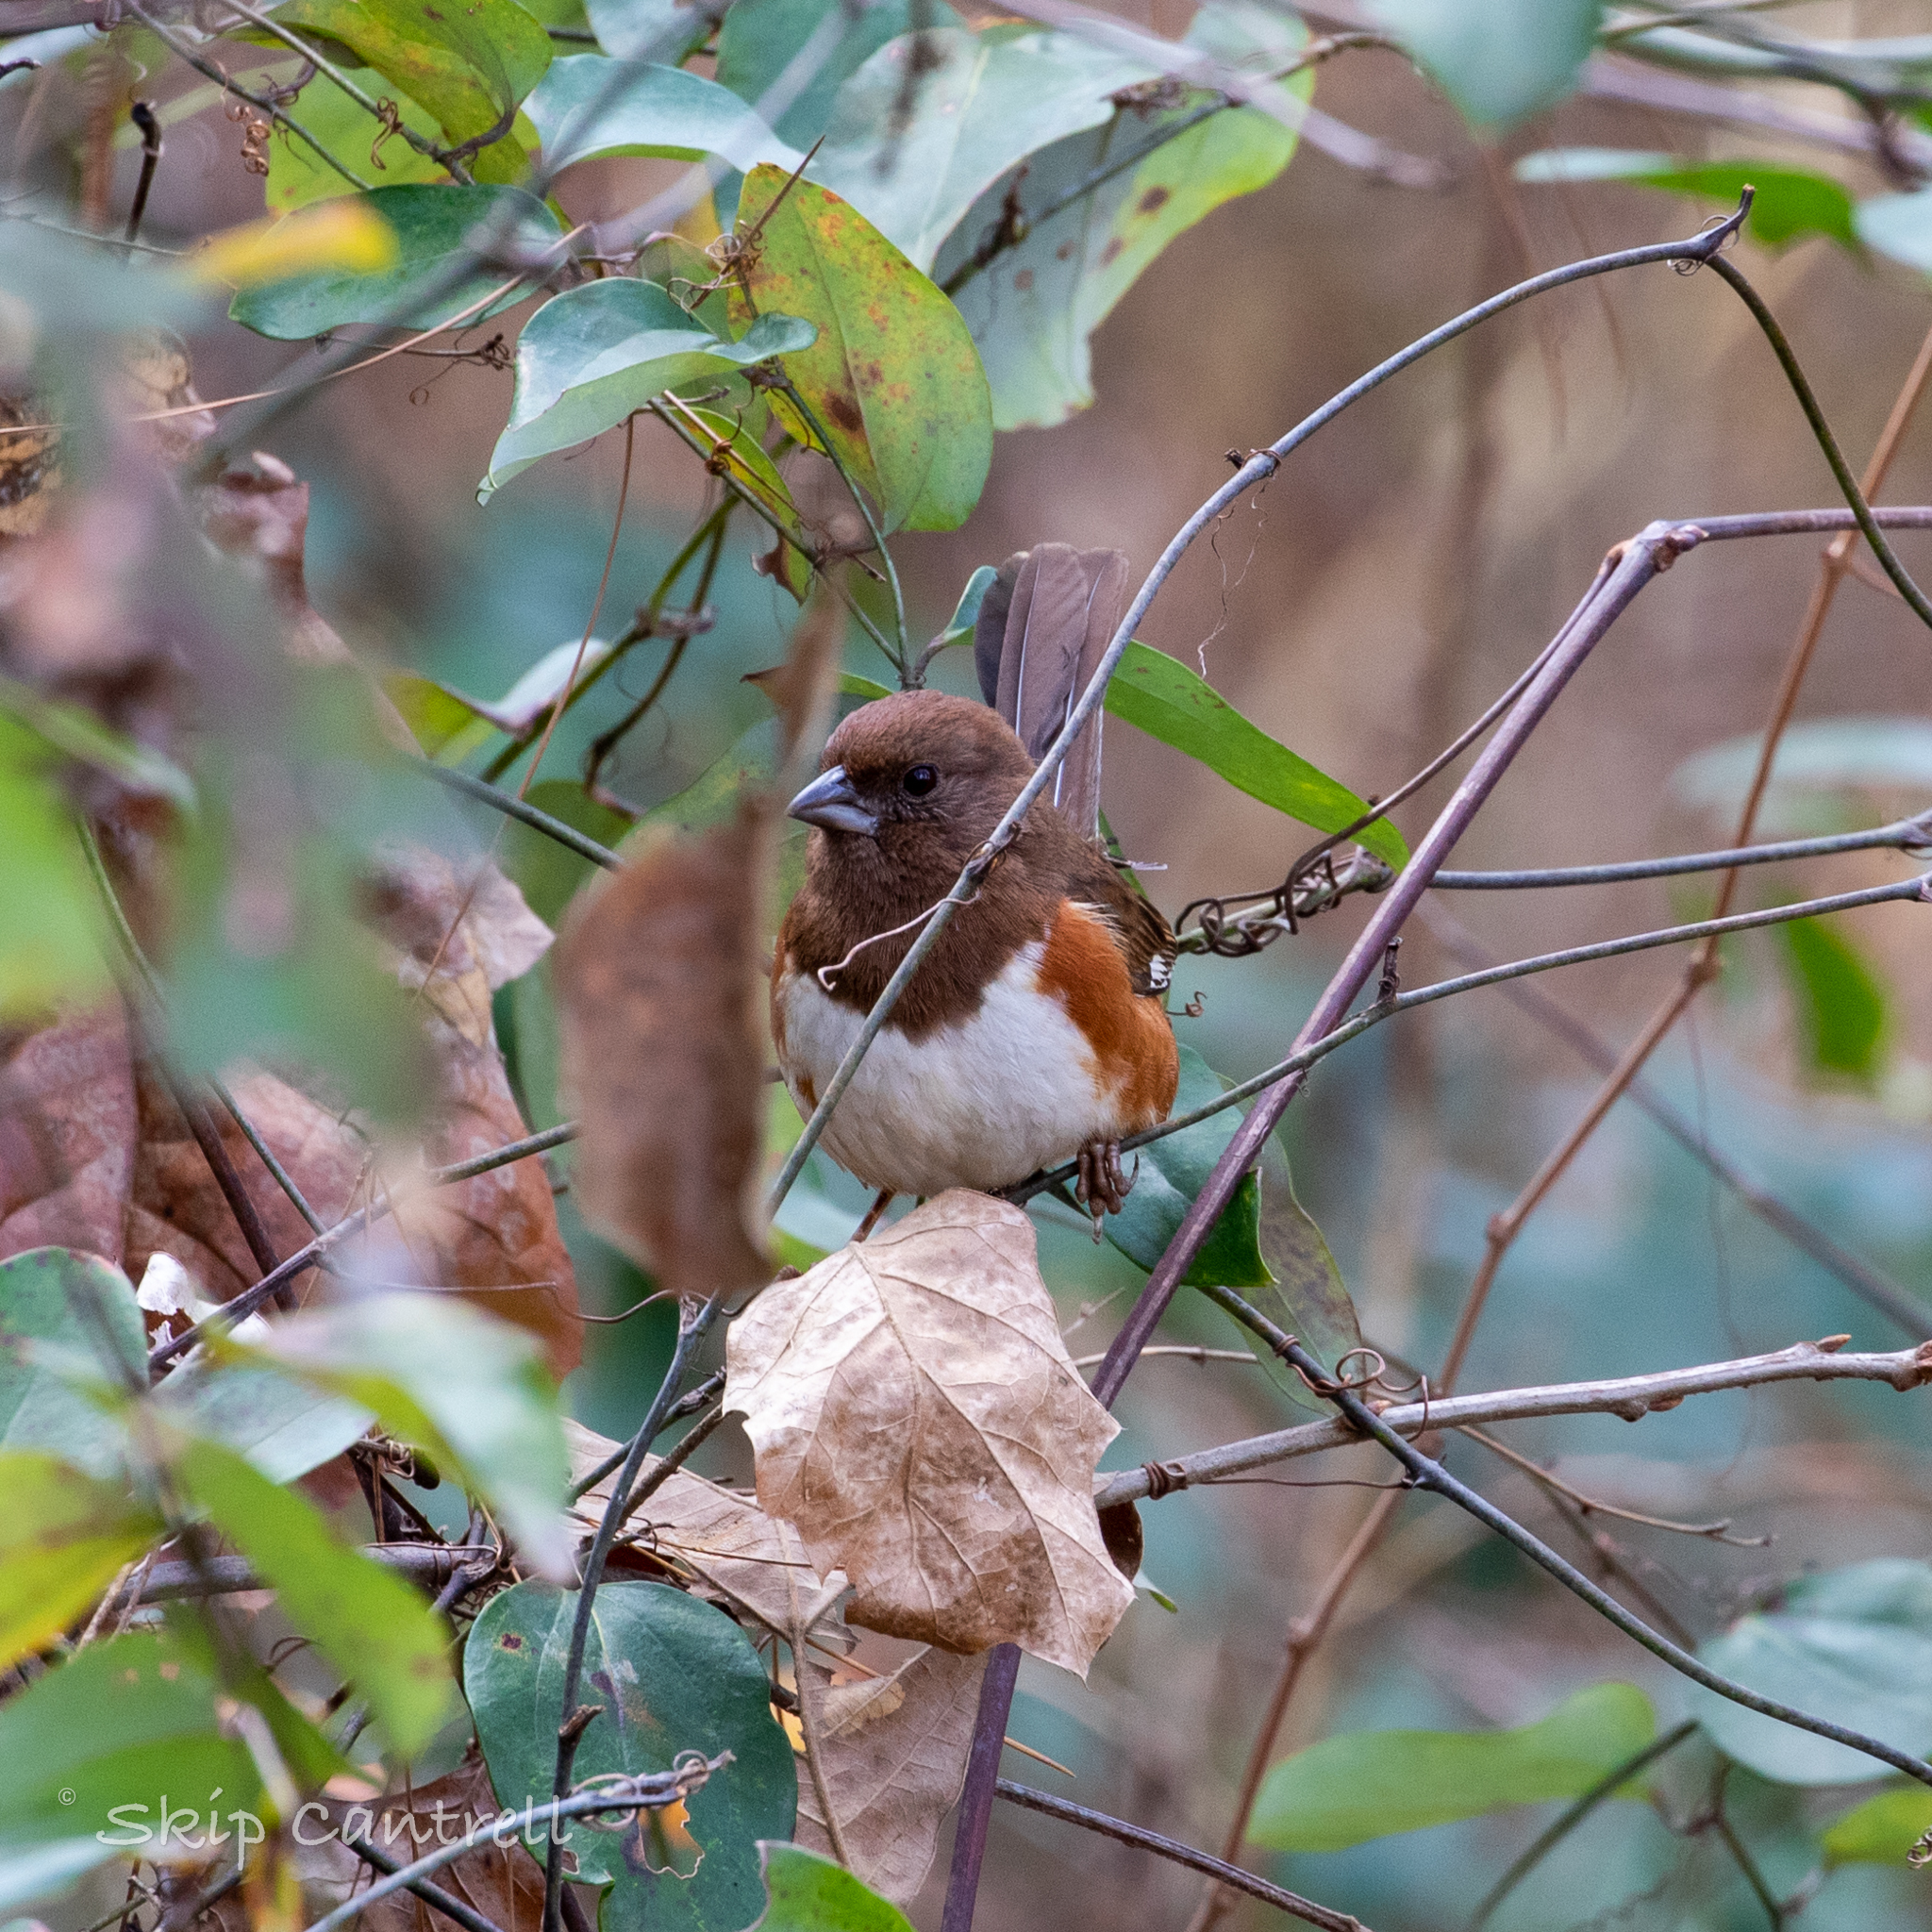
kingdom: Animalia
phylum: Chordata
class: Aves
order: Passeriformes
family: Passerellidae
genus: Pipilo
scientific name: Pipilo erythrophthalmus
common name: Eastern towhee
